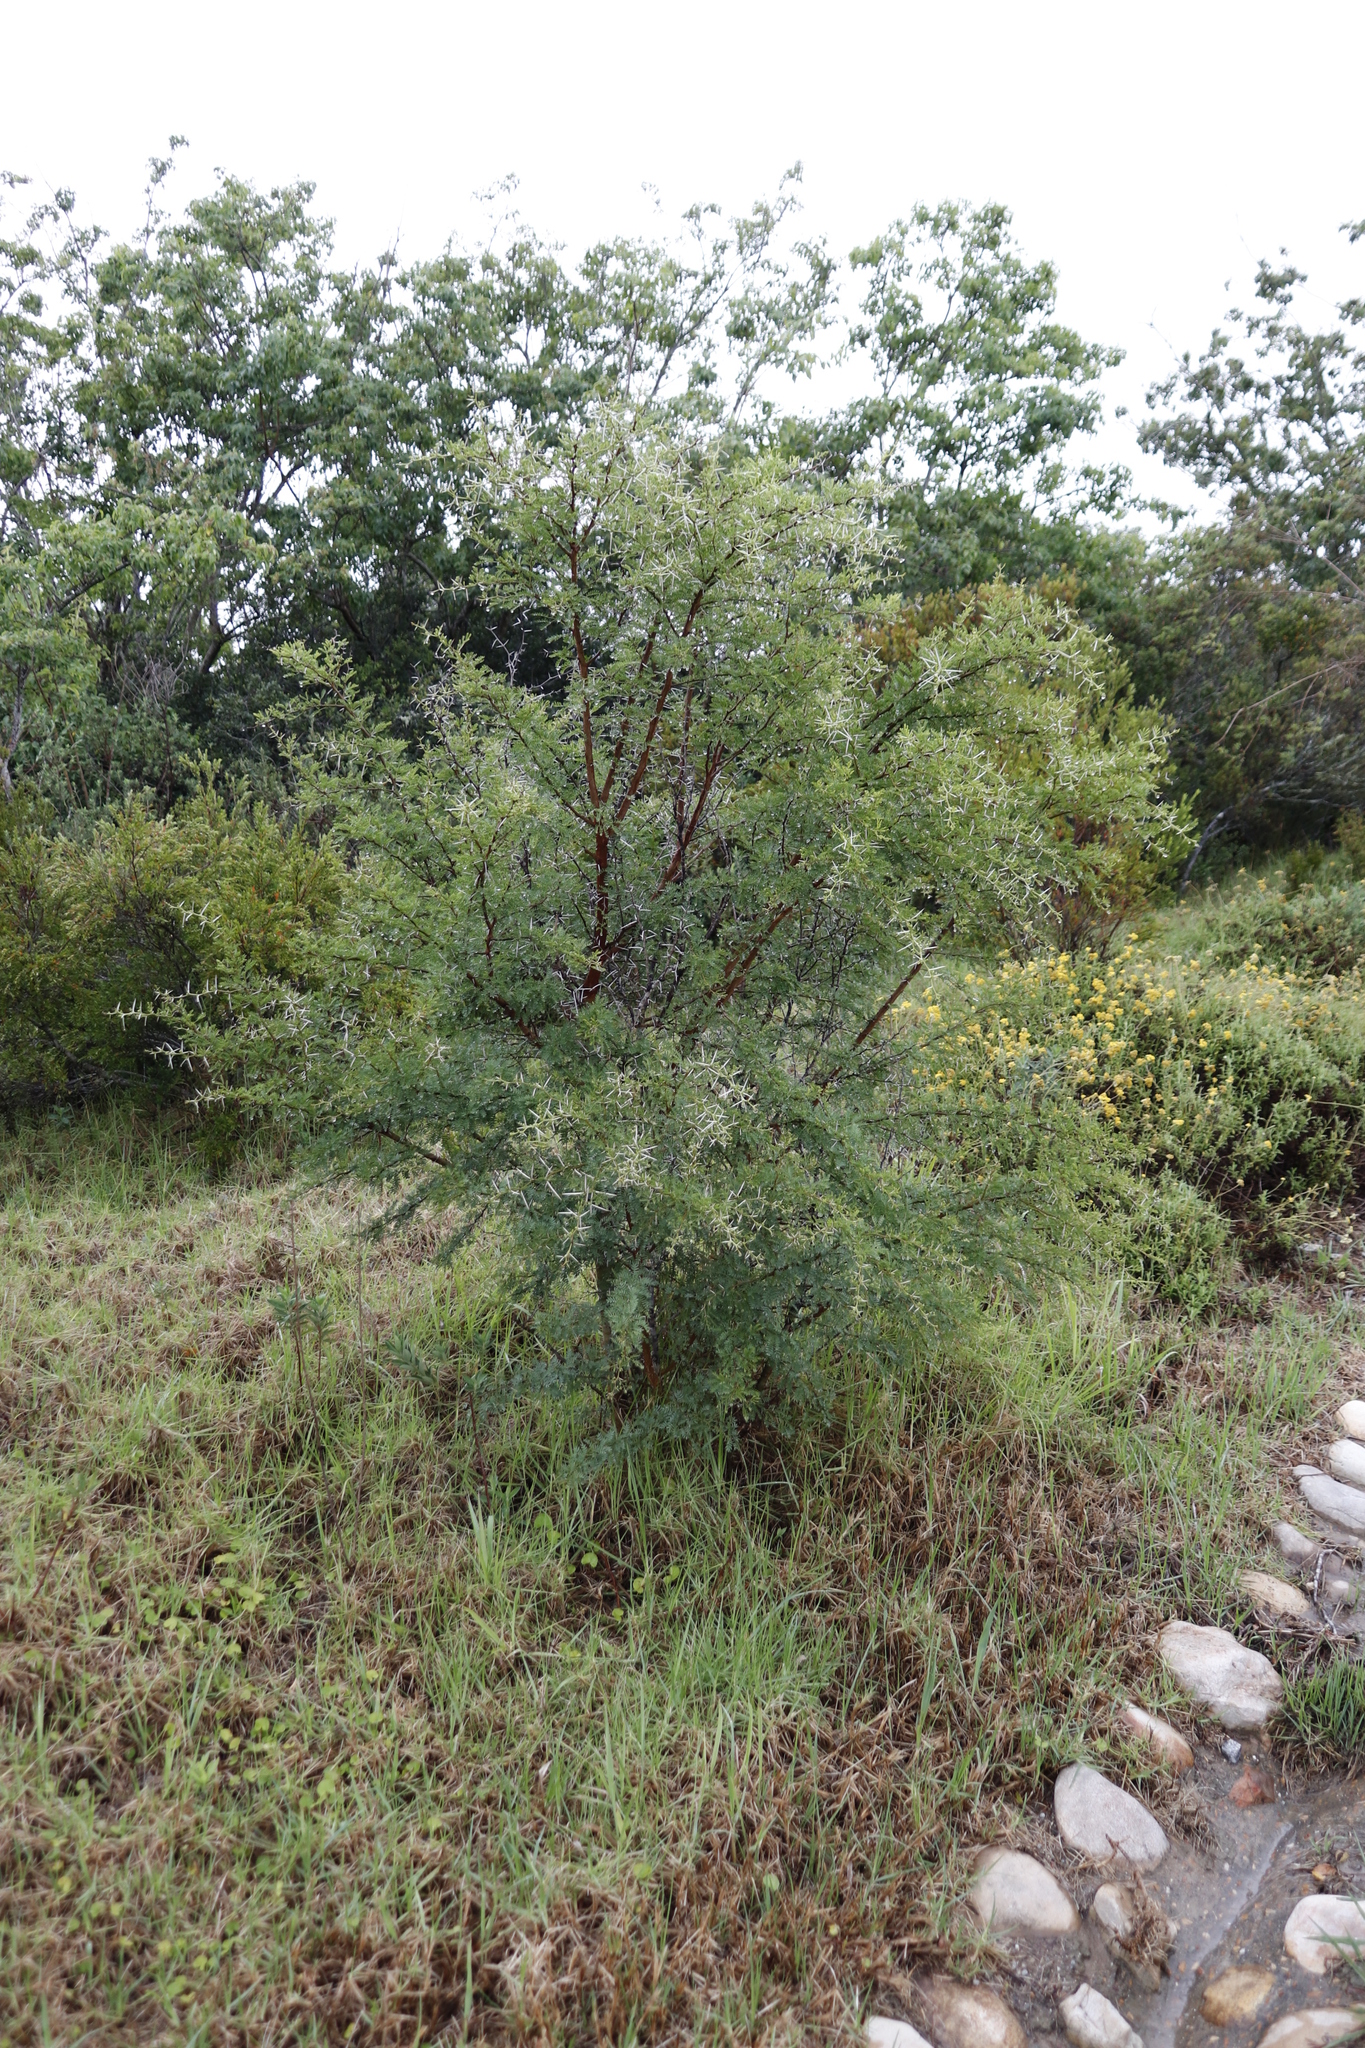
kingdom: Plantae
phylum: Tracheophyta
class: Magnoliopsida
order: Fabales
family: Fabaceae
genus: Vachellia
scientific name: Vachellia karroo
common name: Sweet thorn
